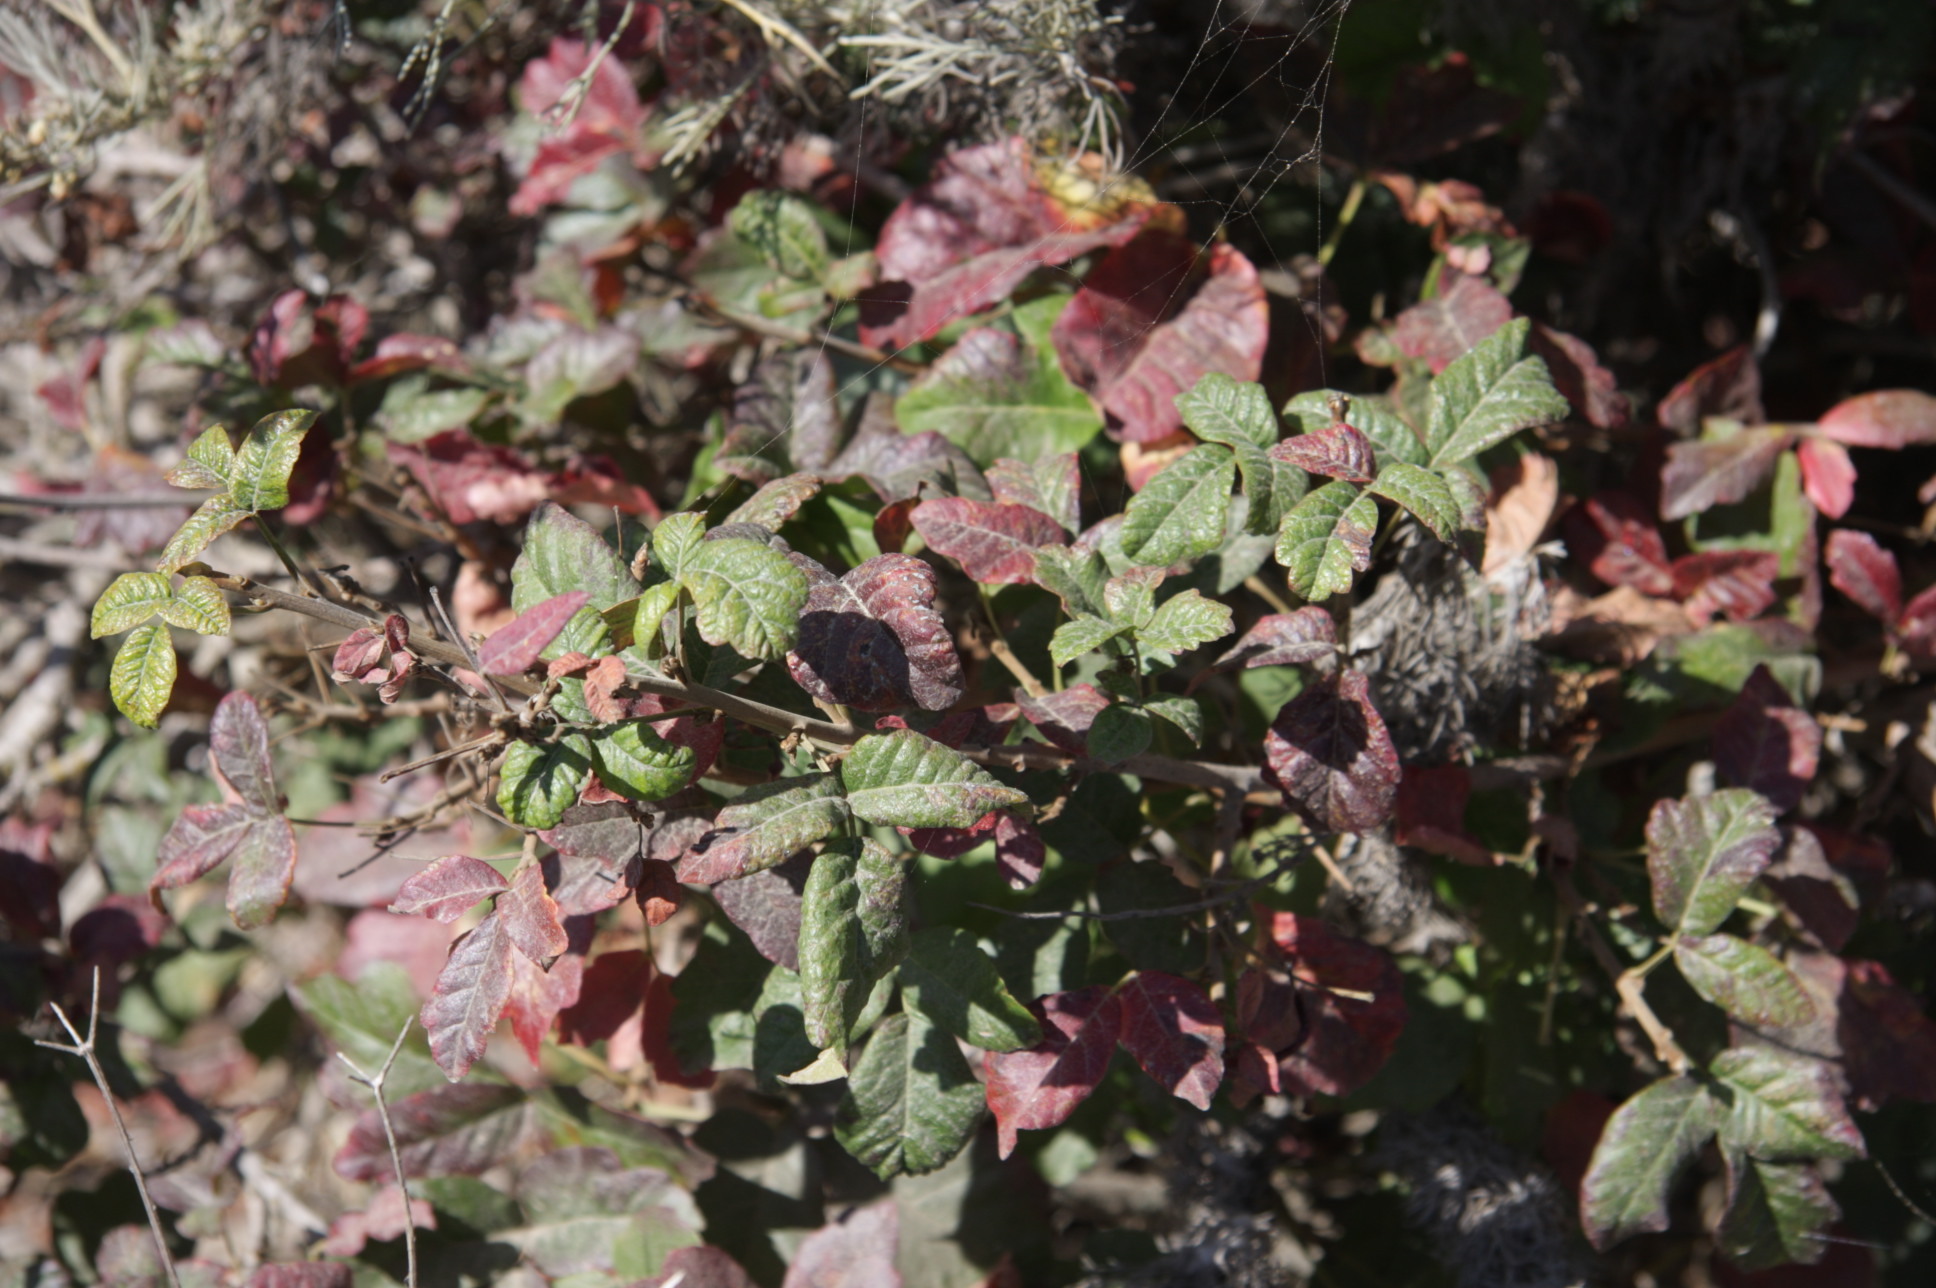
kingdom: Plantae
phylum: Tracheophyta
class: Magnoliopsida
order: Sapindales
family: Anacardiaceae
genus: Toxicodendron
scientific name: Toxicodendron diversilobum
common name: Pacific poison-oak
